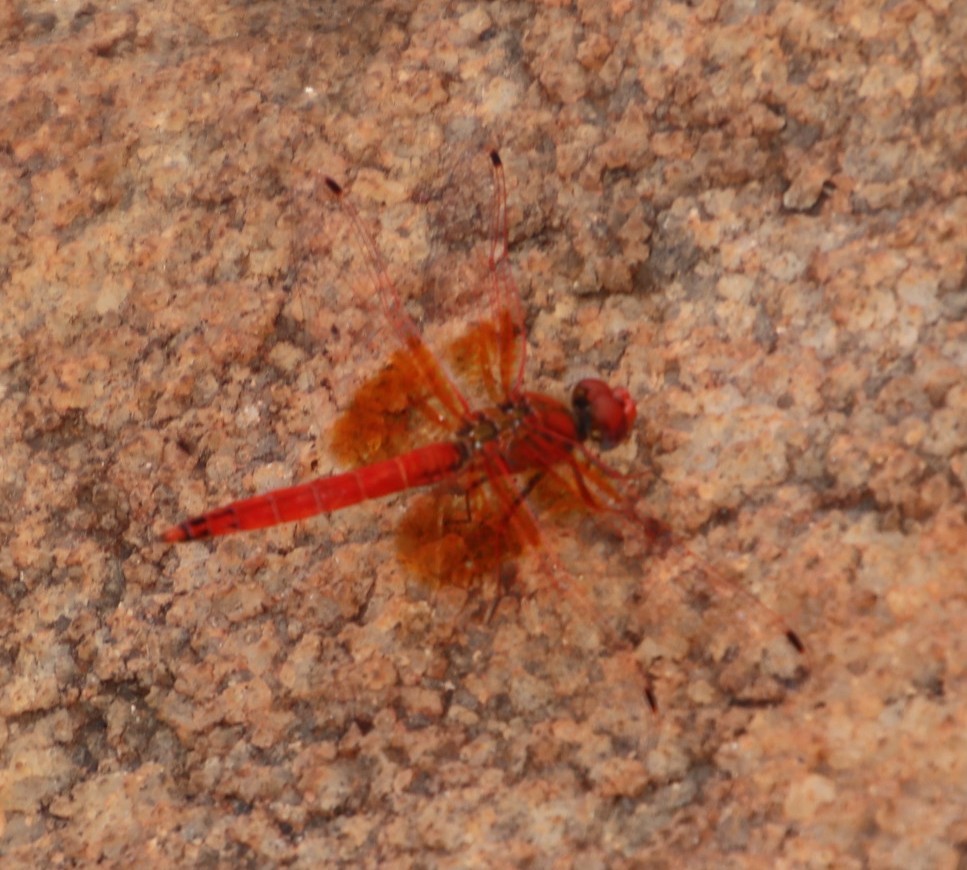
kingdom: Animalia
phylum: Arthropoda
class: Insecta
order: Odonata
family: Libellulidae
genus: Trithemis
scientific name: Trithemis kirbyi
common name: Kirby's dropwing
